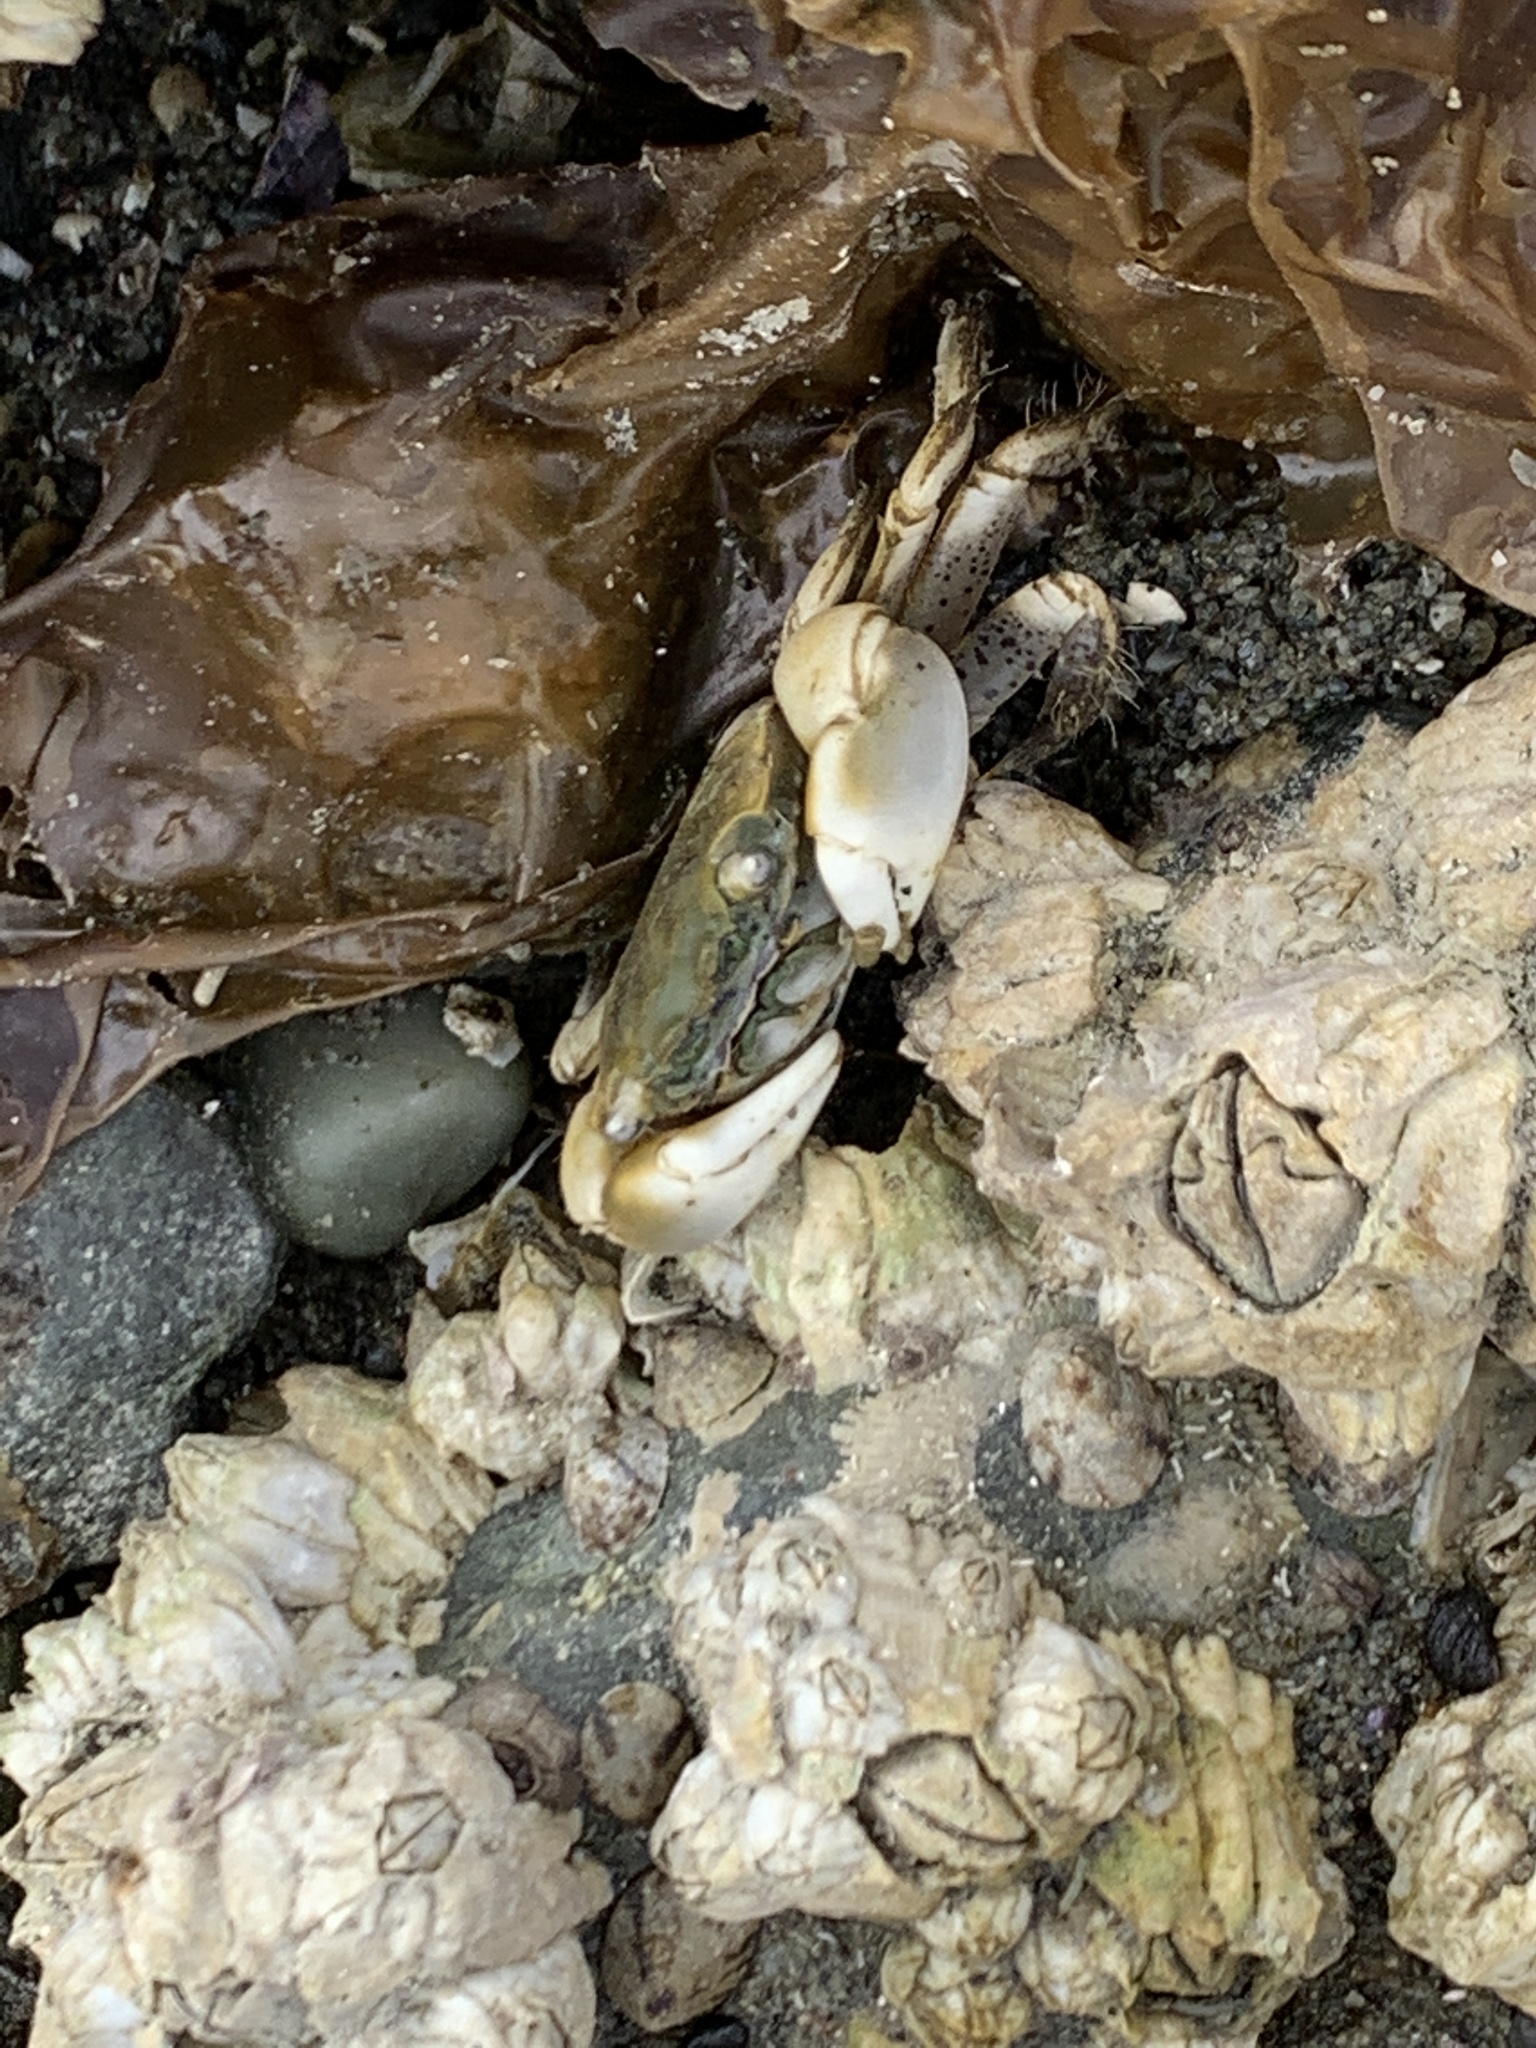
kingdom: Animalia
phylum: Arthropoda
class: Malacostraca
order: Decapoda
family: Varunidae
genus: Hemigrapsus
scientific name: Hemigrapsus oregonensis
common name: Yellow shore crab
